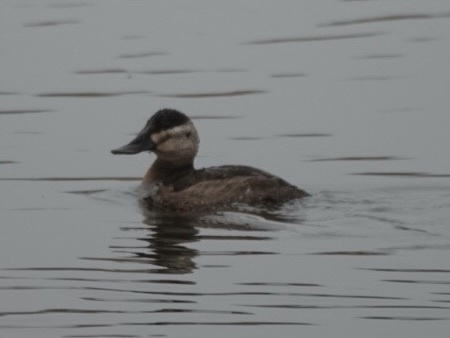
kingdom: Animalia
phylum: Chordata
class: Aves
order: Anseriformes
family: Anatidae
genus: Oxyura
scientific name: Oxyura jamaicensis
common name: Ruddy duck
